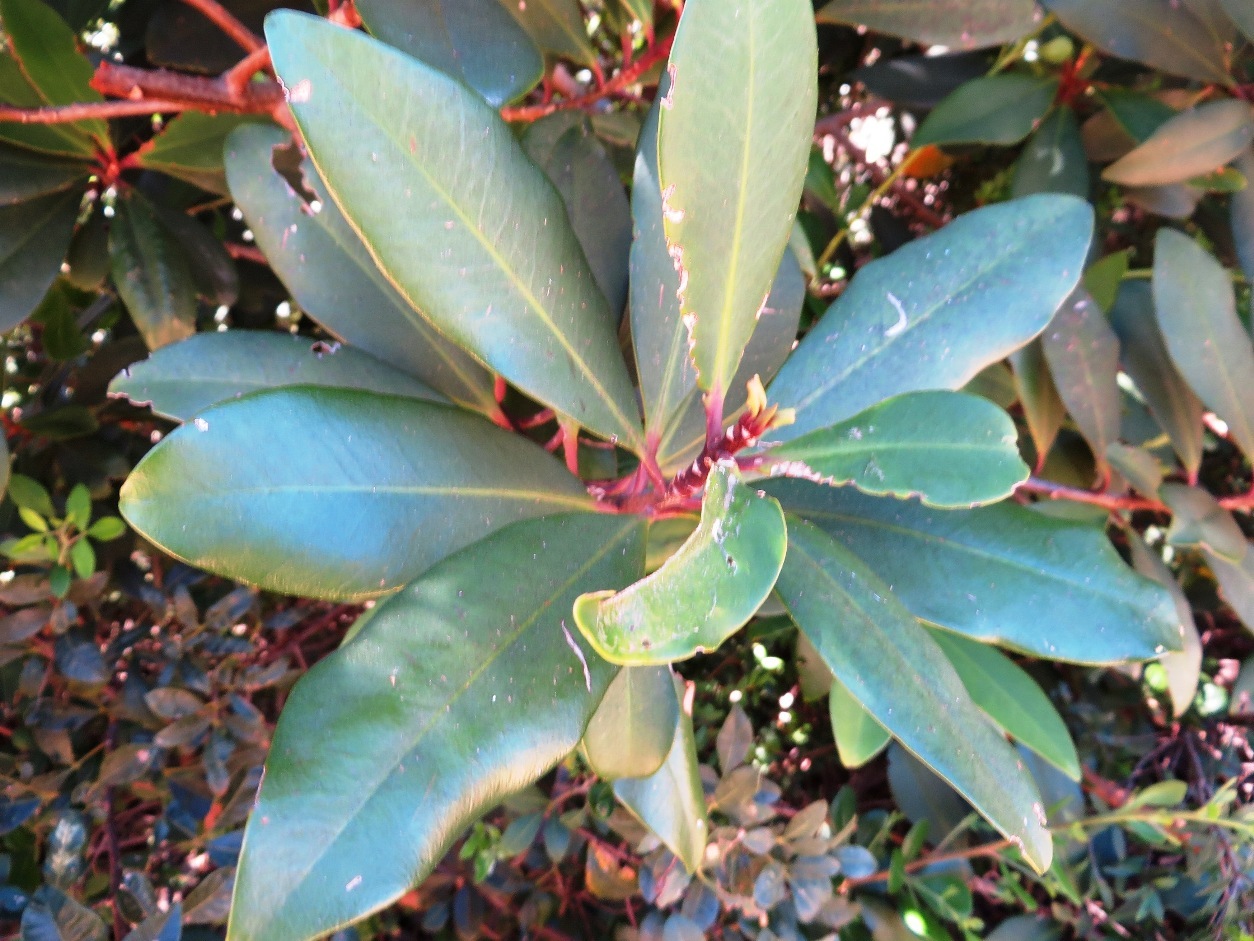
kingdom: Plantae
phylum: Tracheophyta
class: Magnoliopsida
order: Ericales
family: Primulaceae
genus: Myrsine
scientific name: Myrsine melanophloeos
